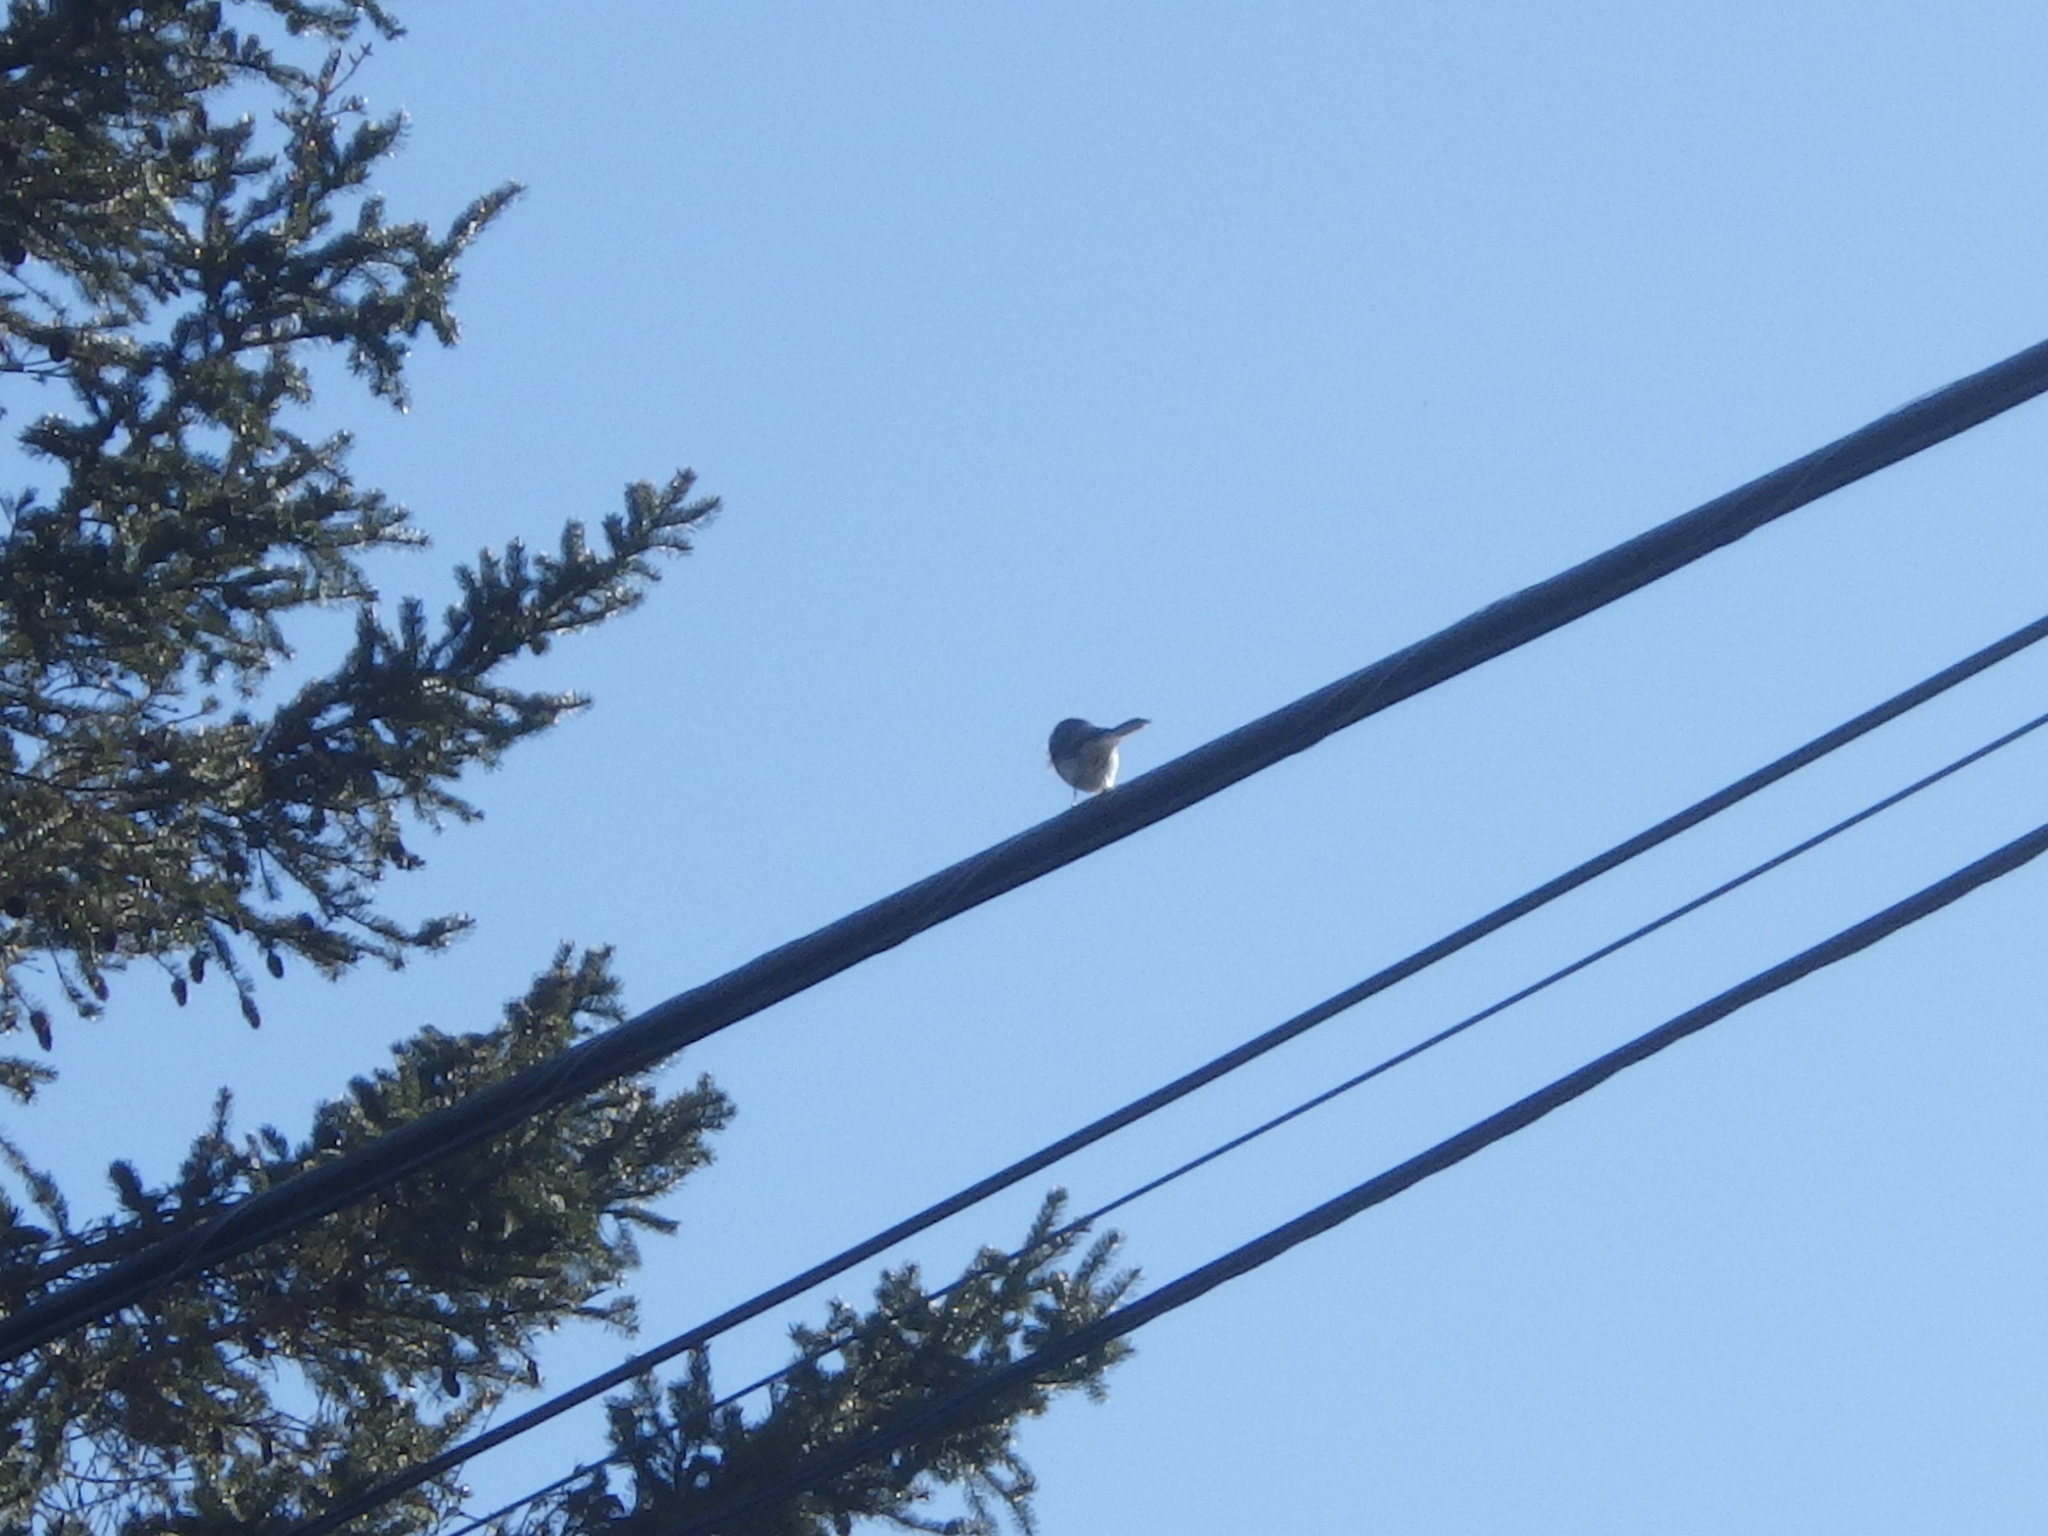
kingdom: Animalia
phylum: Chordata
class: Aves
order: Passeriformes
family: Passerellidae
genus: Junco
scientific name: Junco hyemalis
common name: Dark-eyed junco
